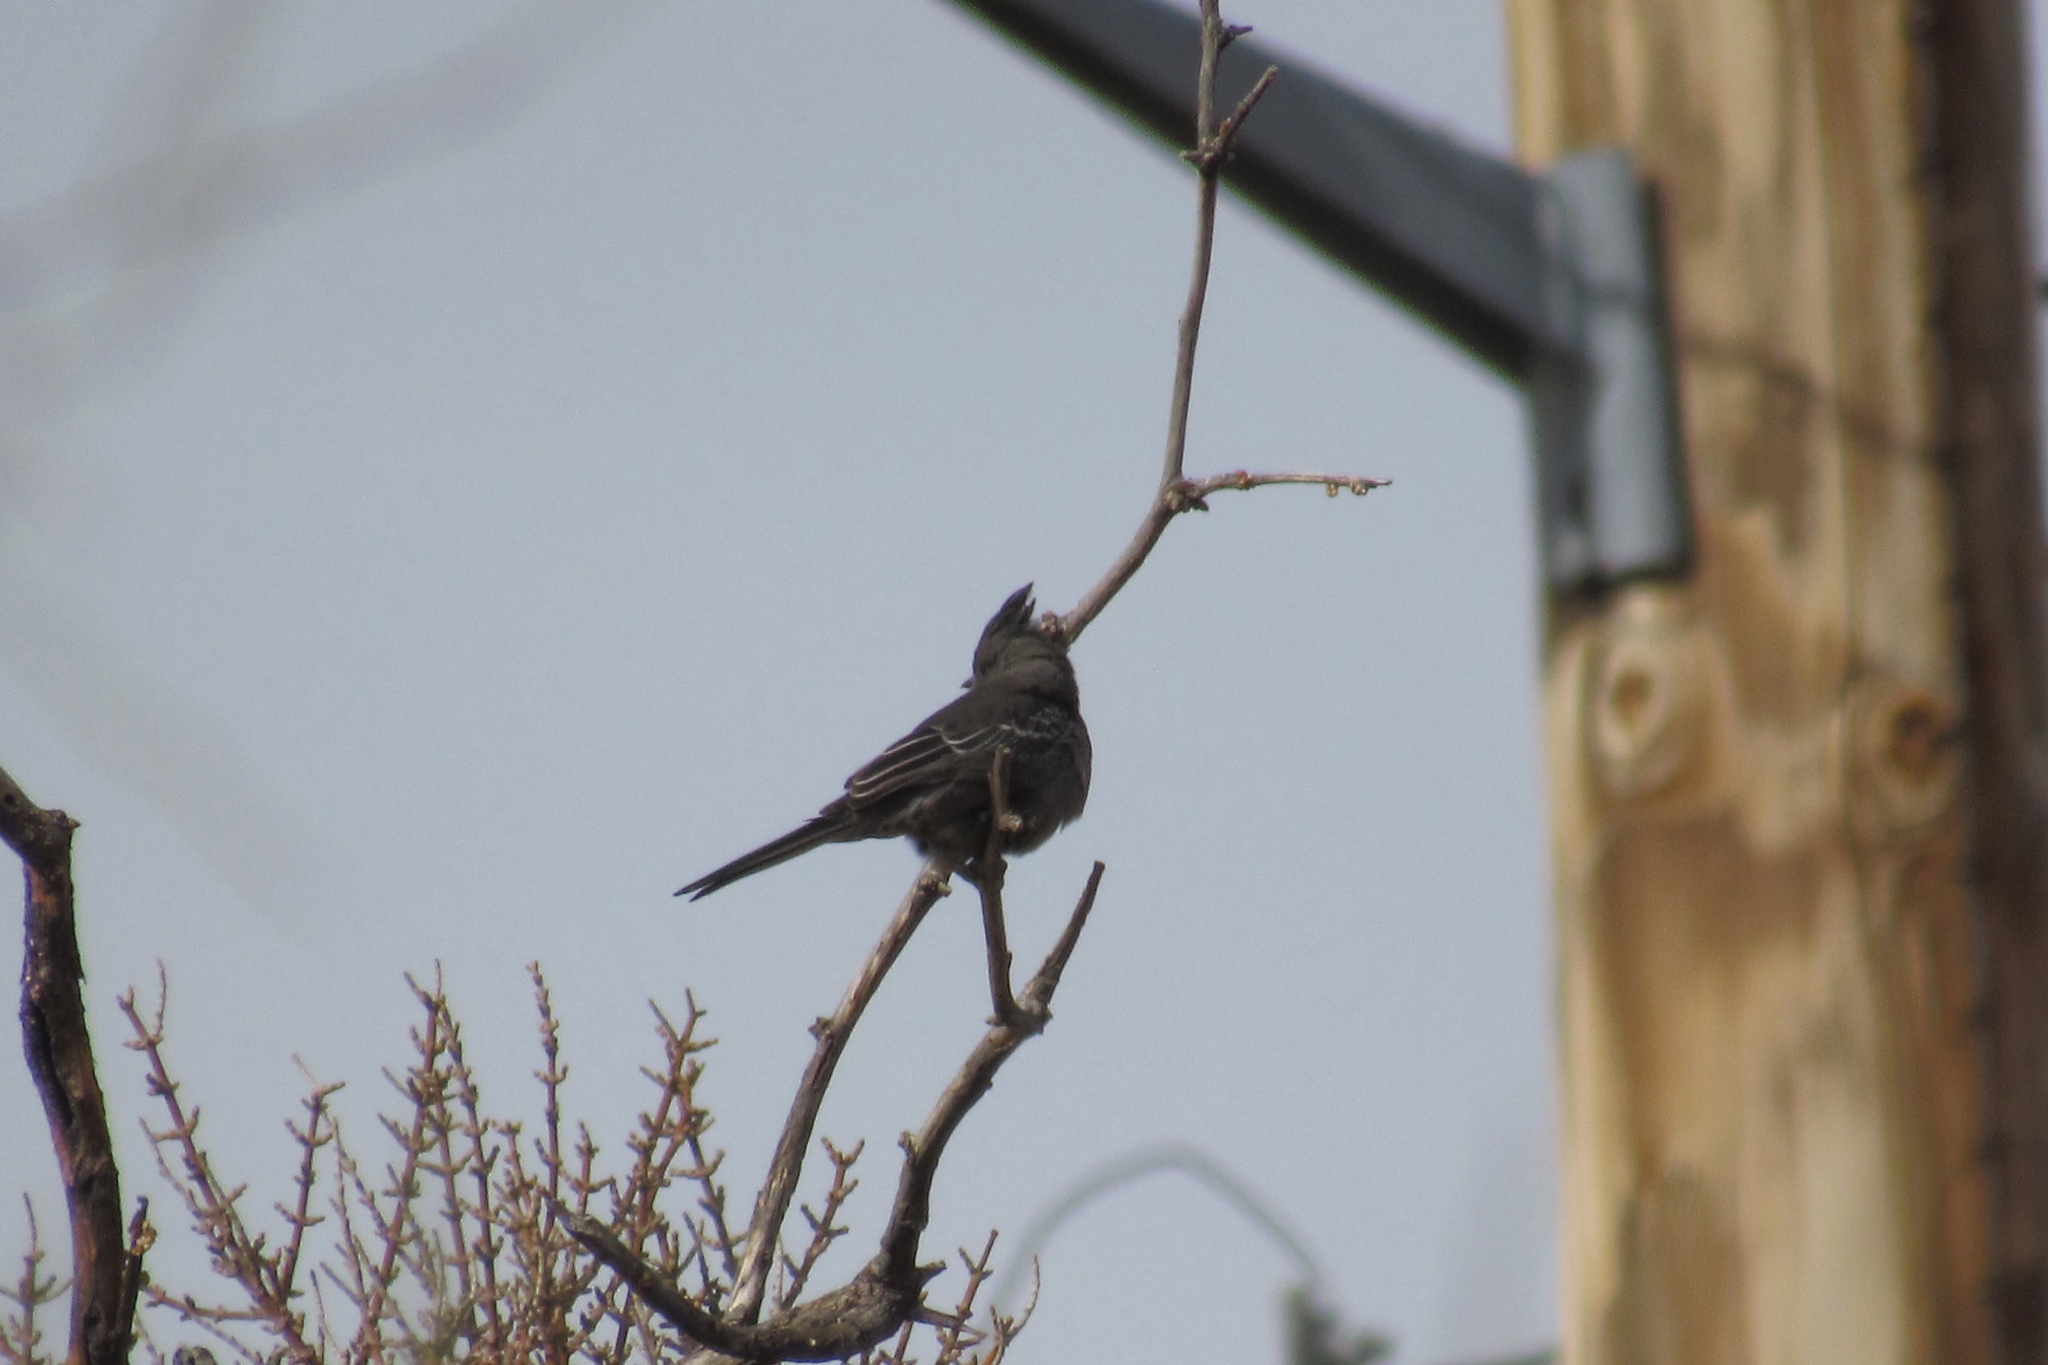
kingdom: Animalia
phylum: Chordata
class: Aves
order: Passeriformes
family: Ptilogonatidae
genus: Phainopepla
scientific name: Phainopepla nitens
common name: Phainopepla
